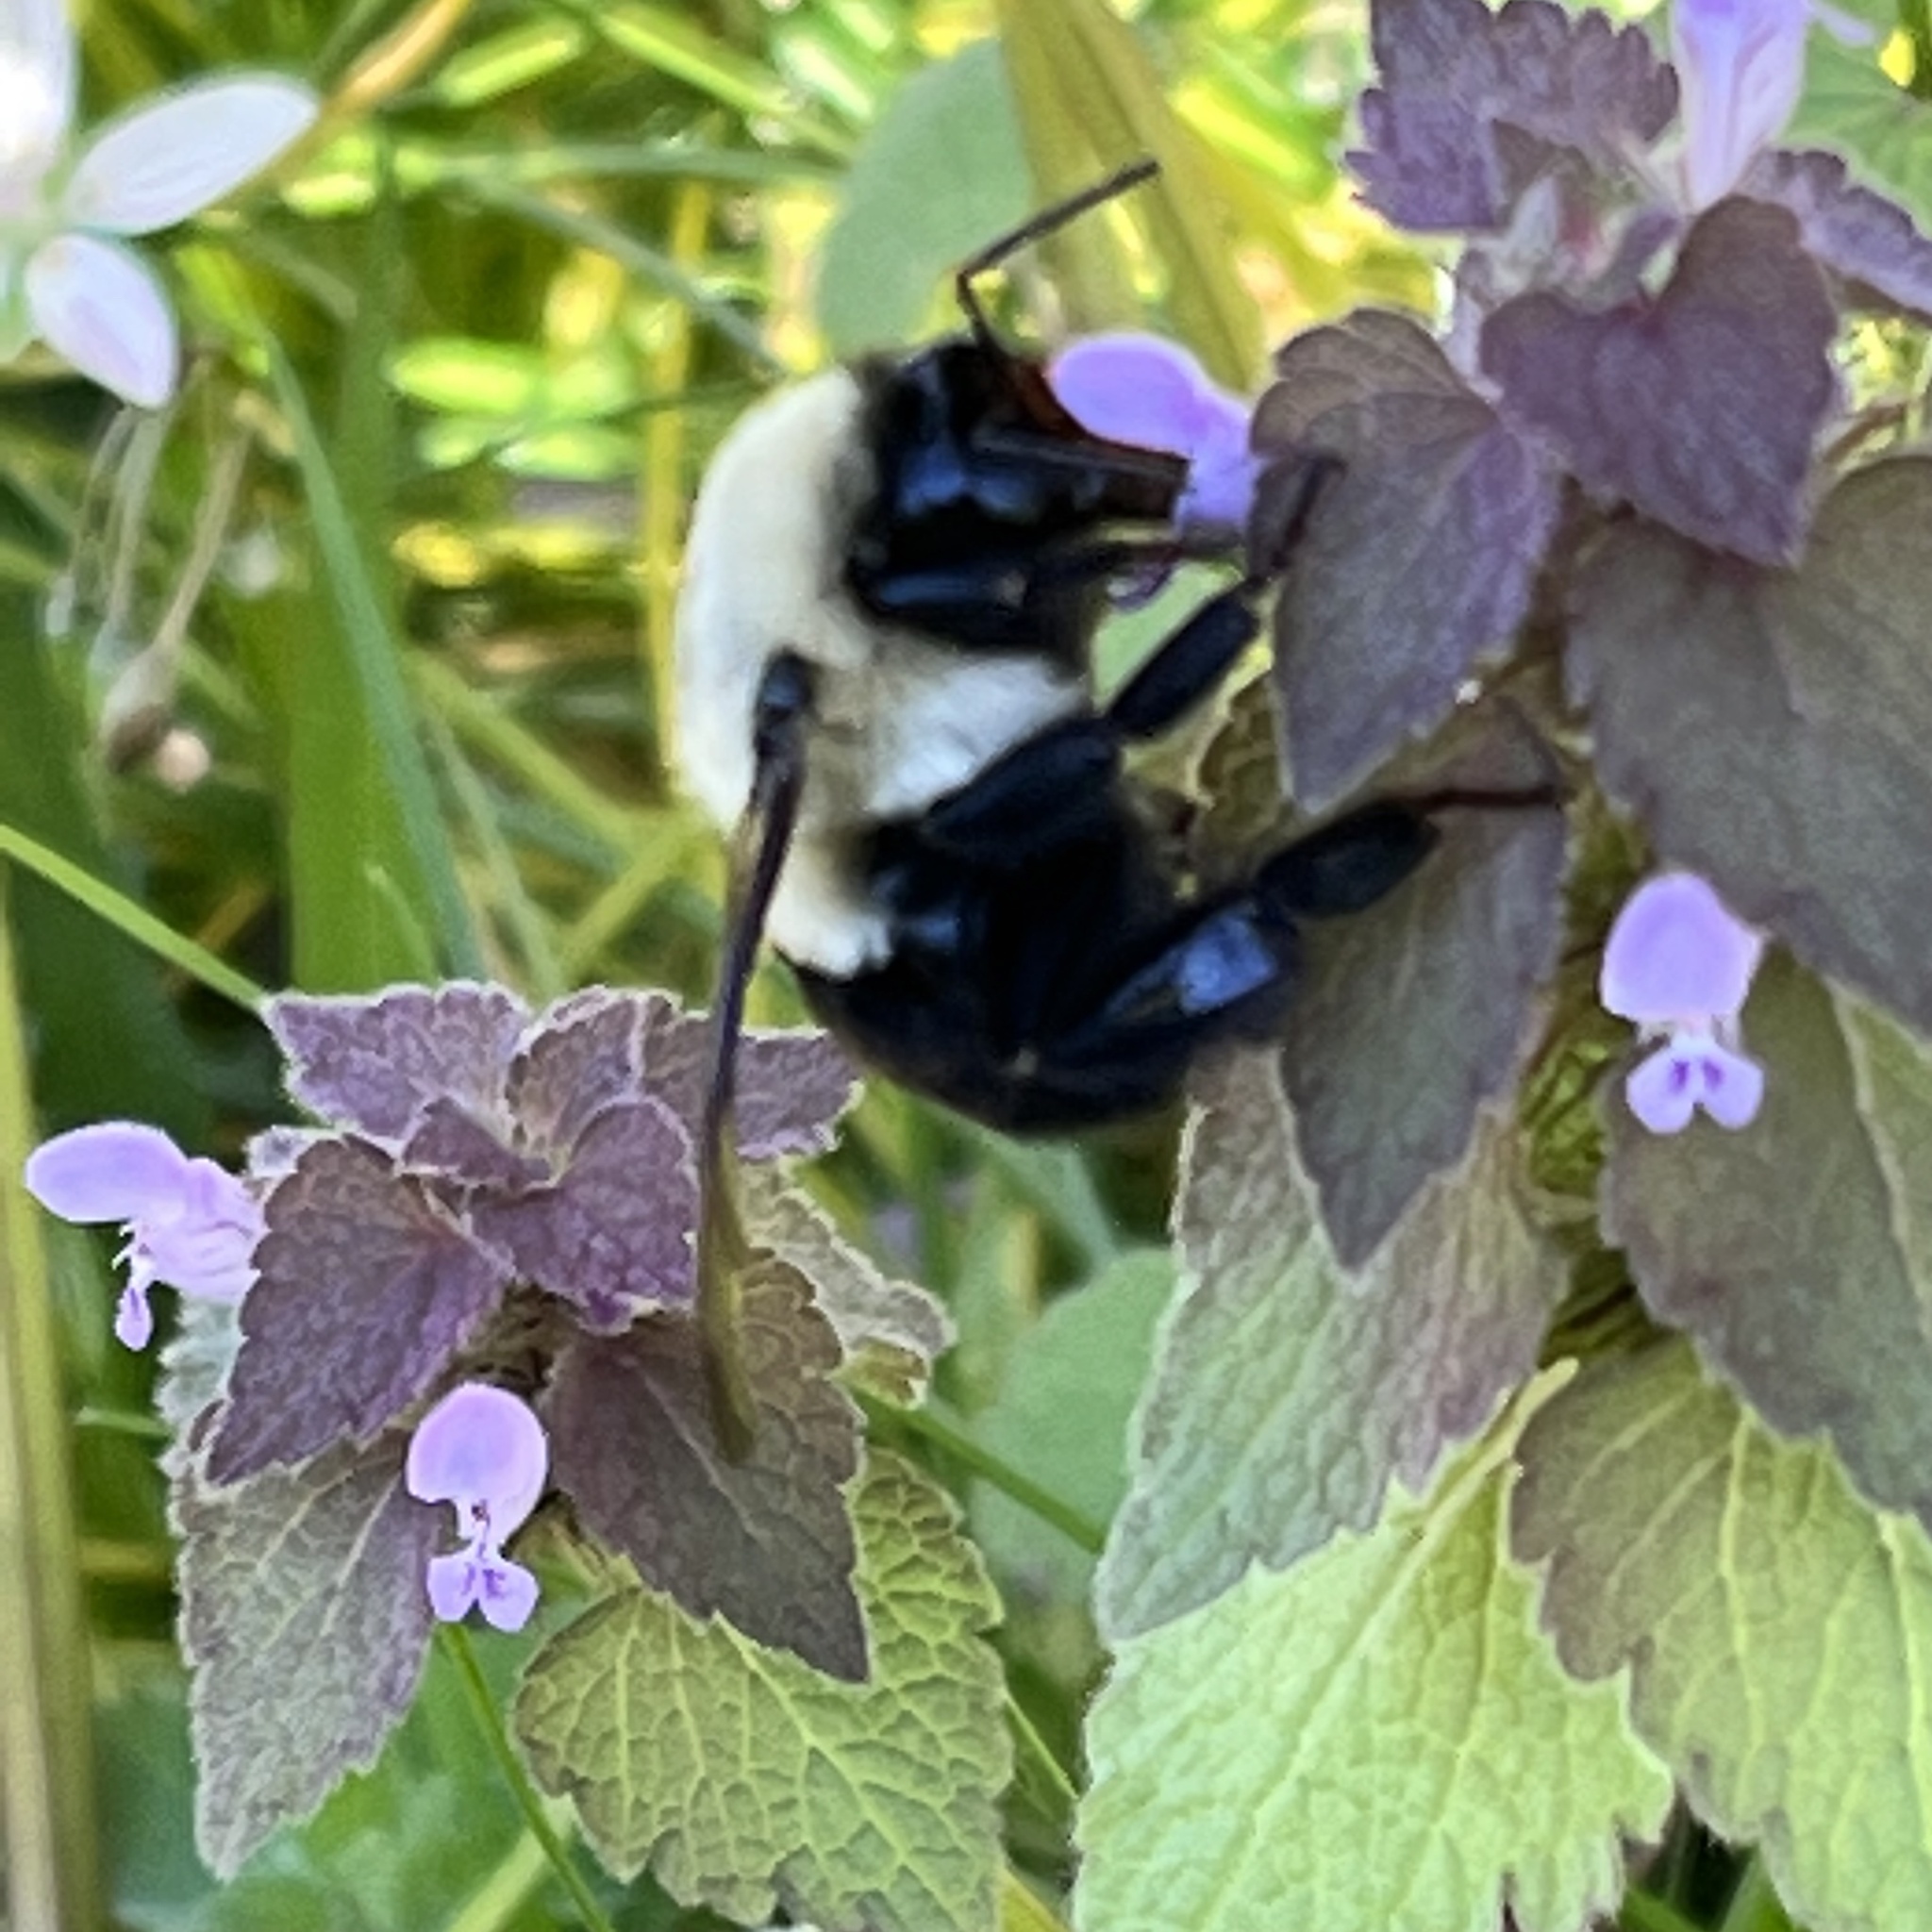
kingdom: Animalia
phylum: Arthropoda
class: Insecta
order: Hymenoptera
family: Apidae
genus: Bombus
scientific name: Bombus impatiens
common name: Common eastern bumble bee
